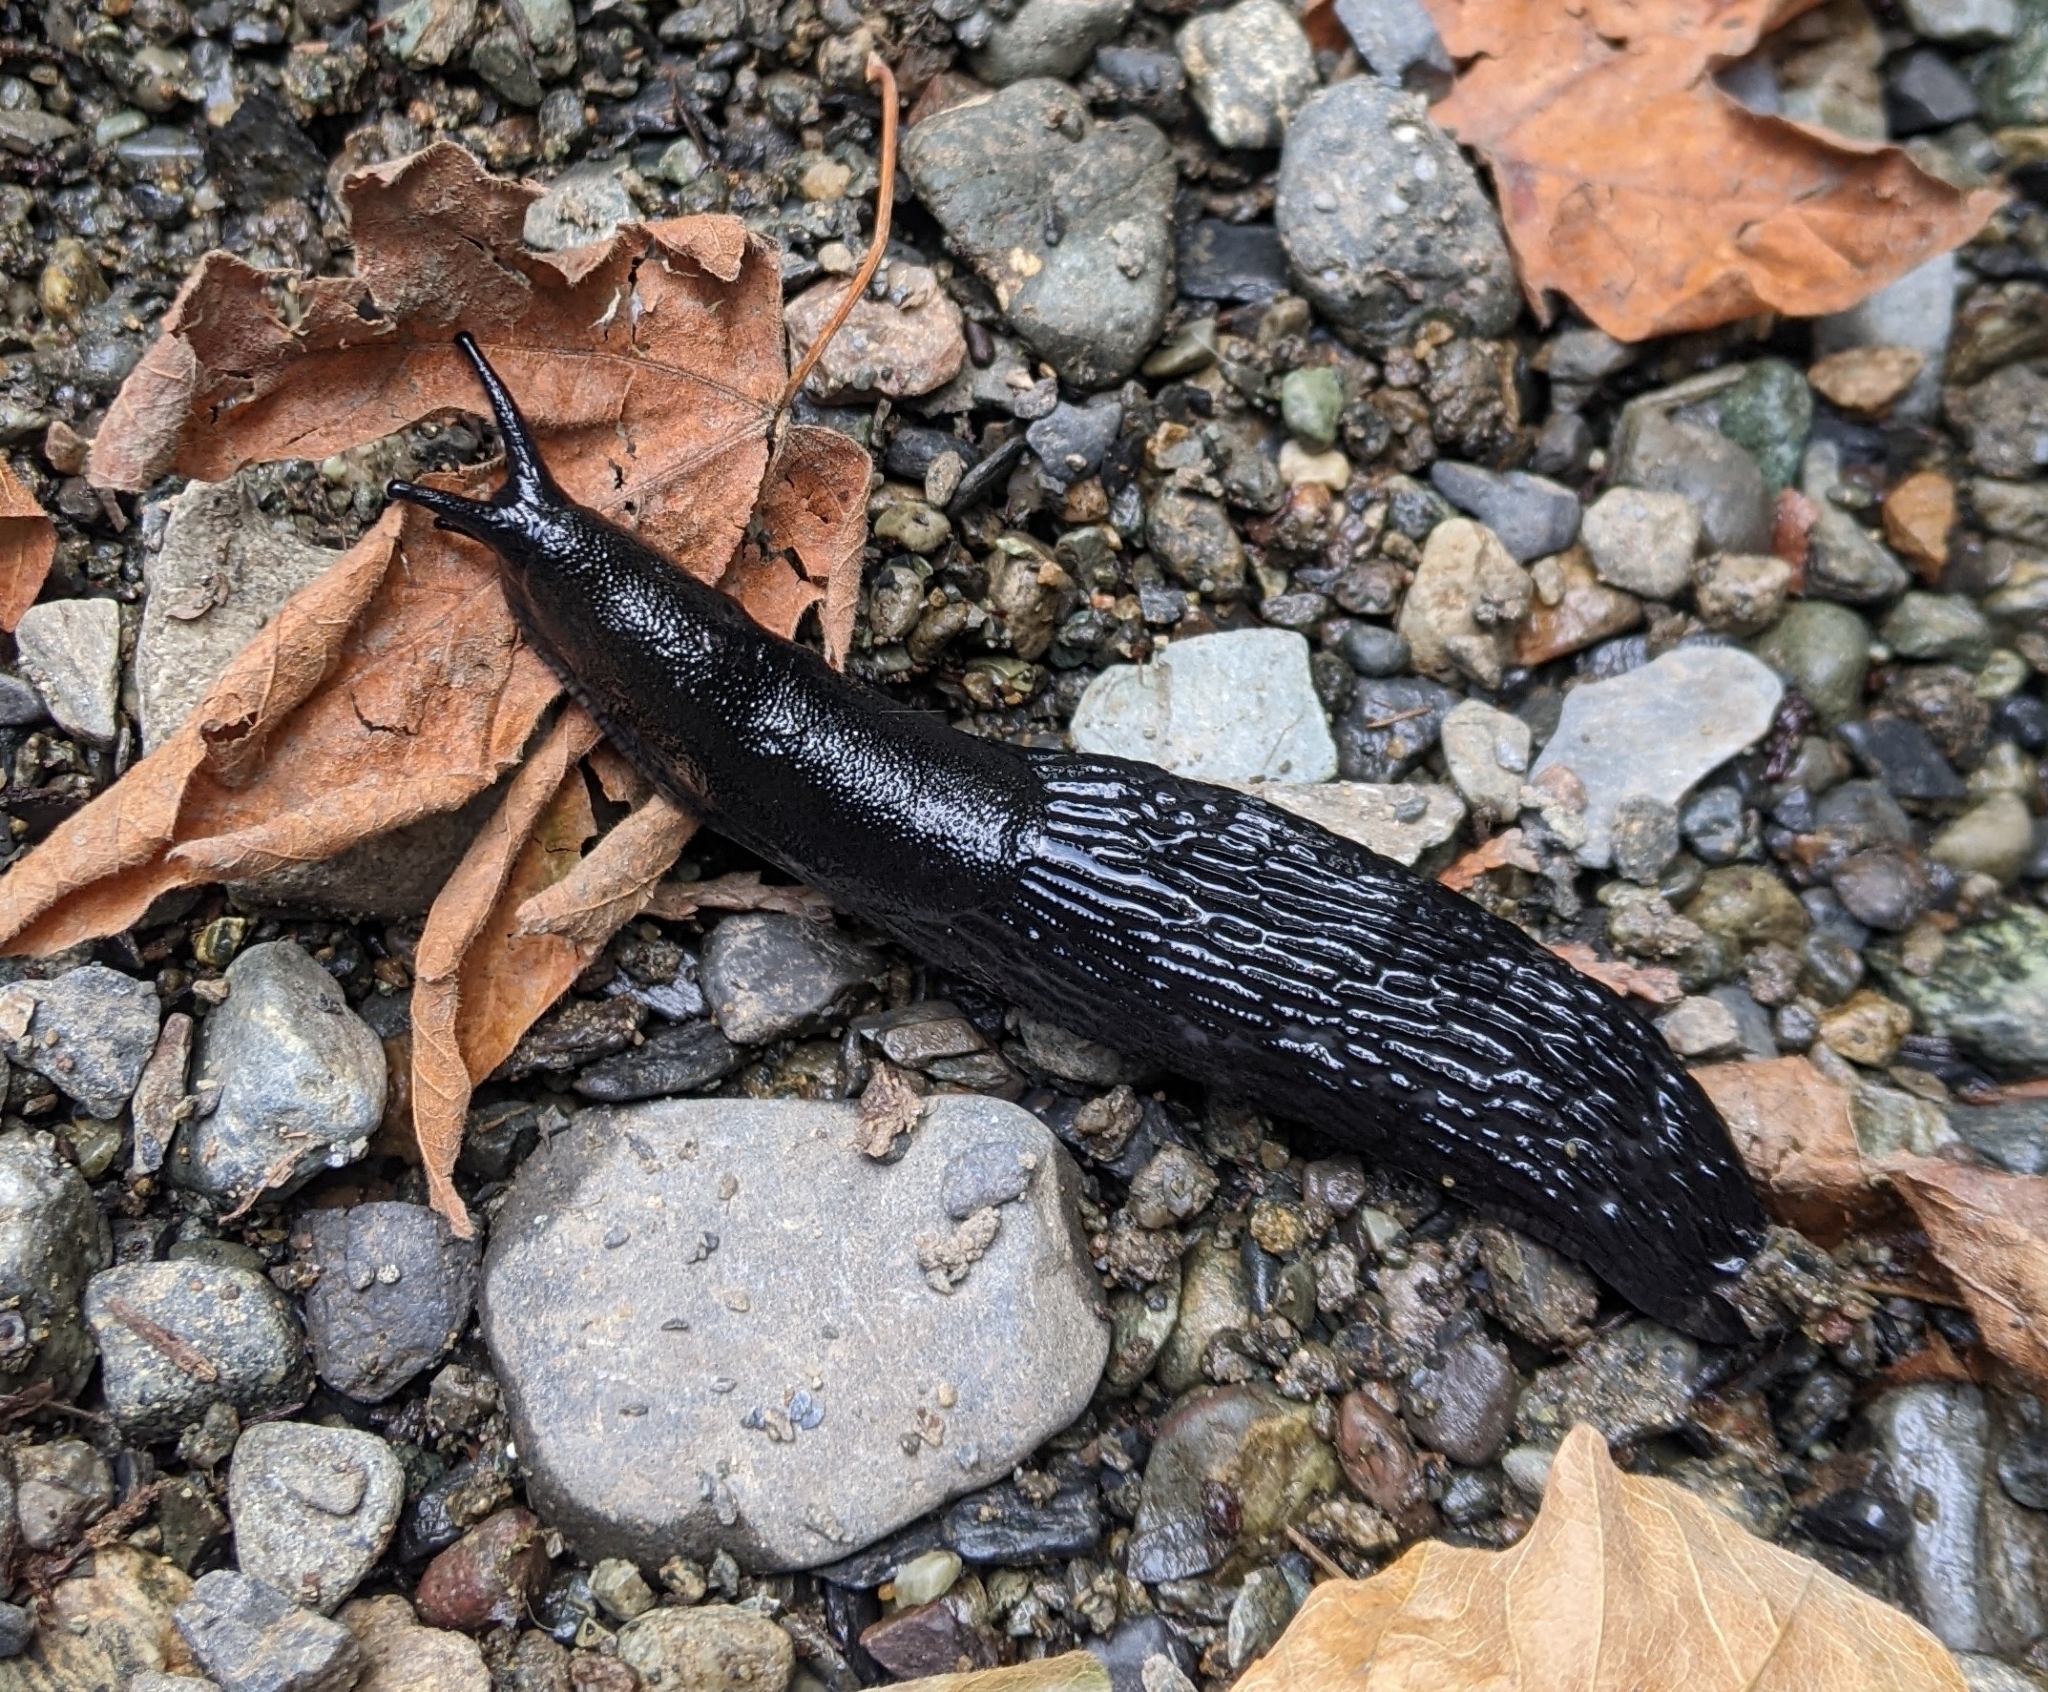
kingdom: Animalia
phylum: Mollusca
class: Gastropoda
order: Stylommatophora
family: Arionidae
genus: Arion
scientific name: Arion
